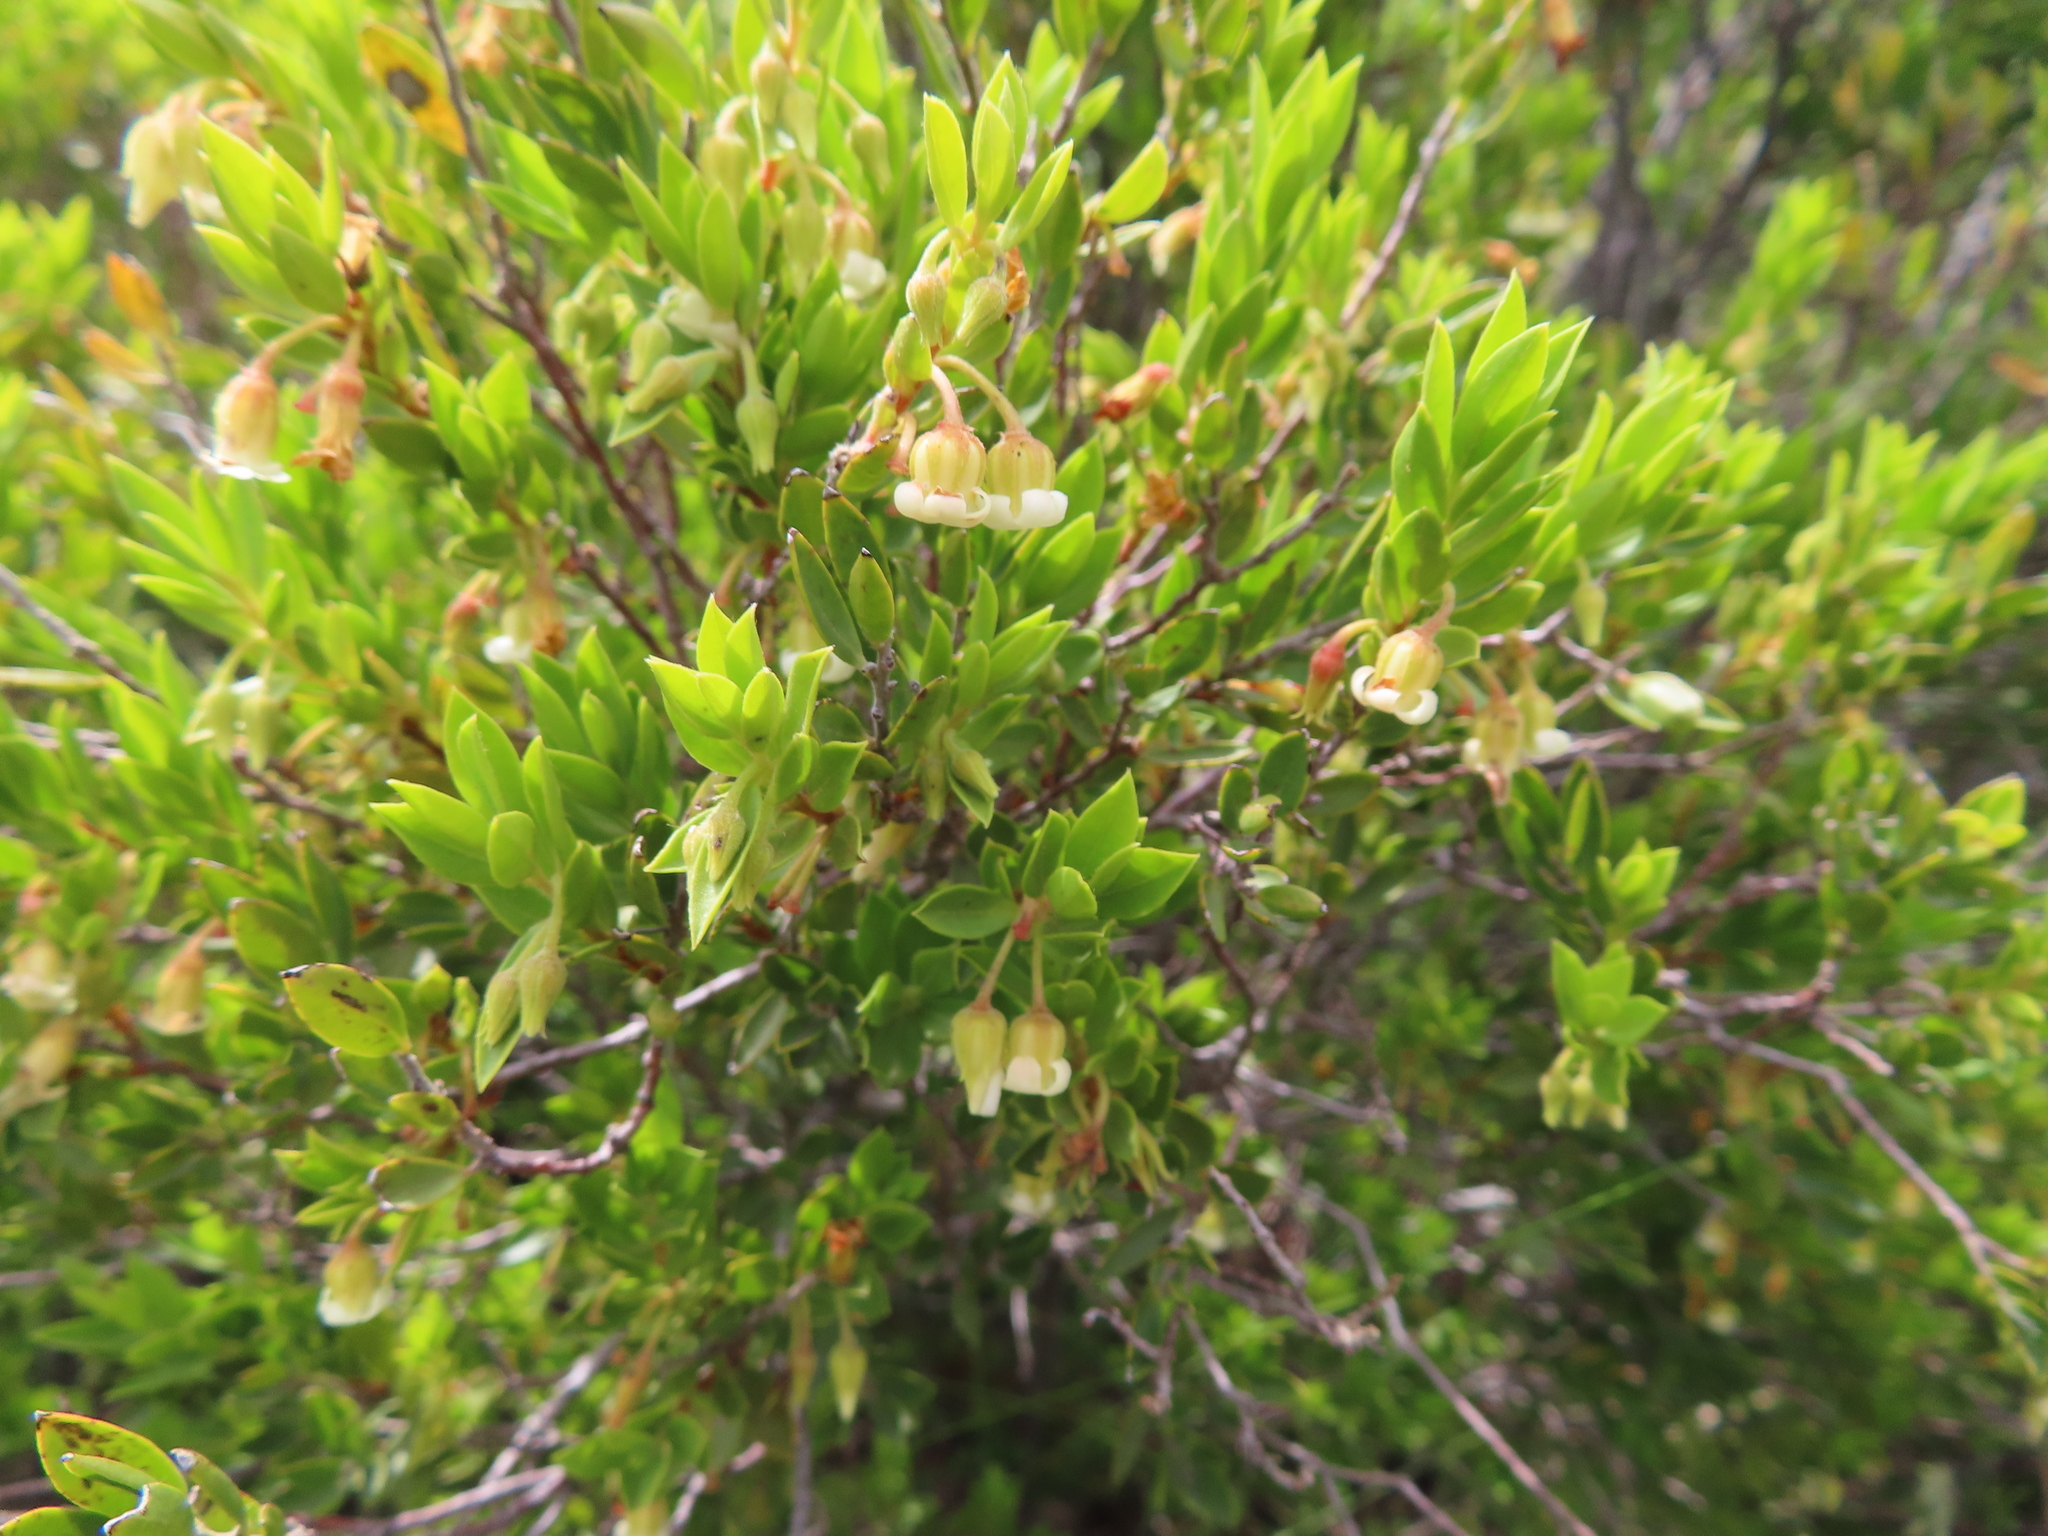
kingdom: Plantae
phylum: Tracheophyta
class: Magnoliopsida
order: Ericales
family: Ebenaceae
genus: Diospyros
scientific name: Diospyros glabra
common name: Fynbos star apple
